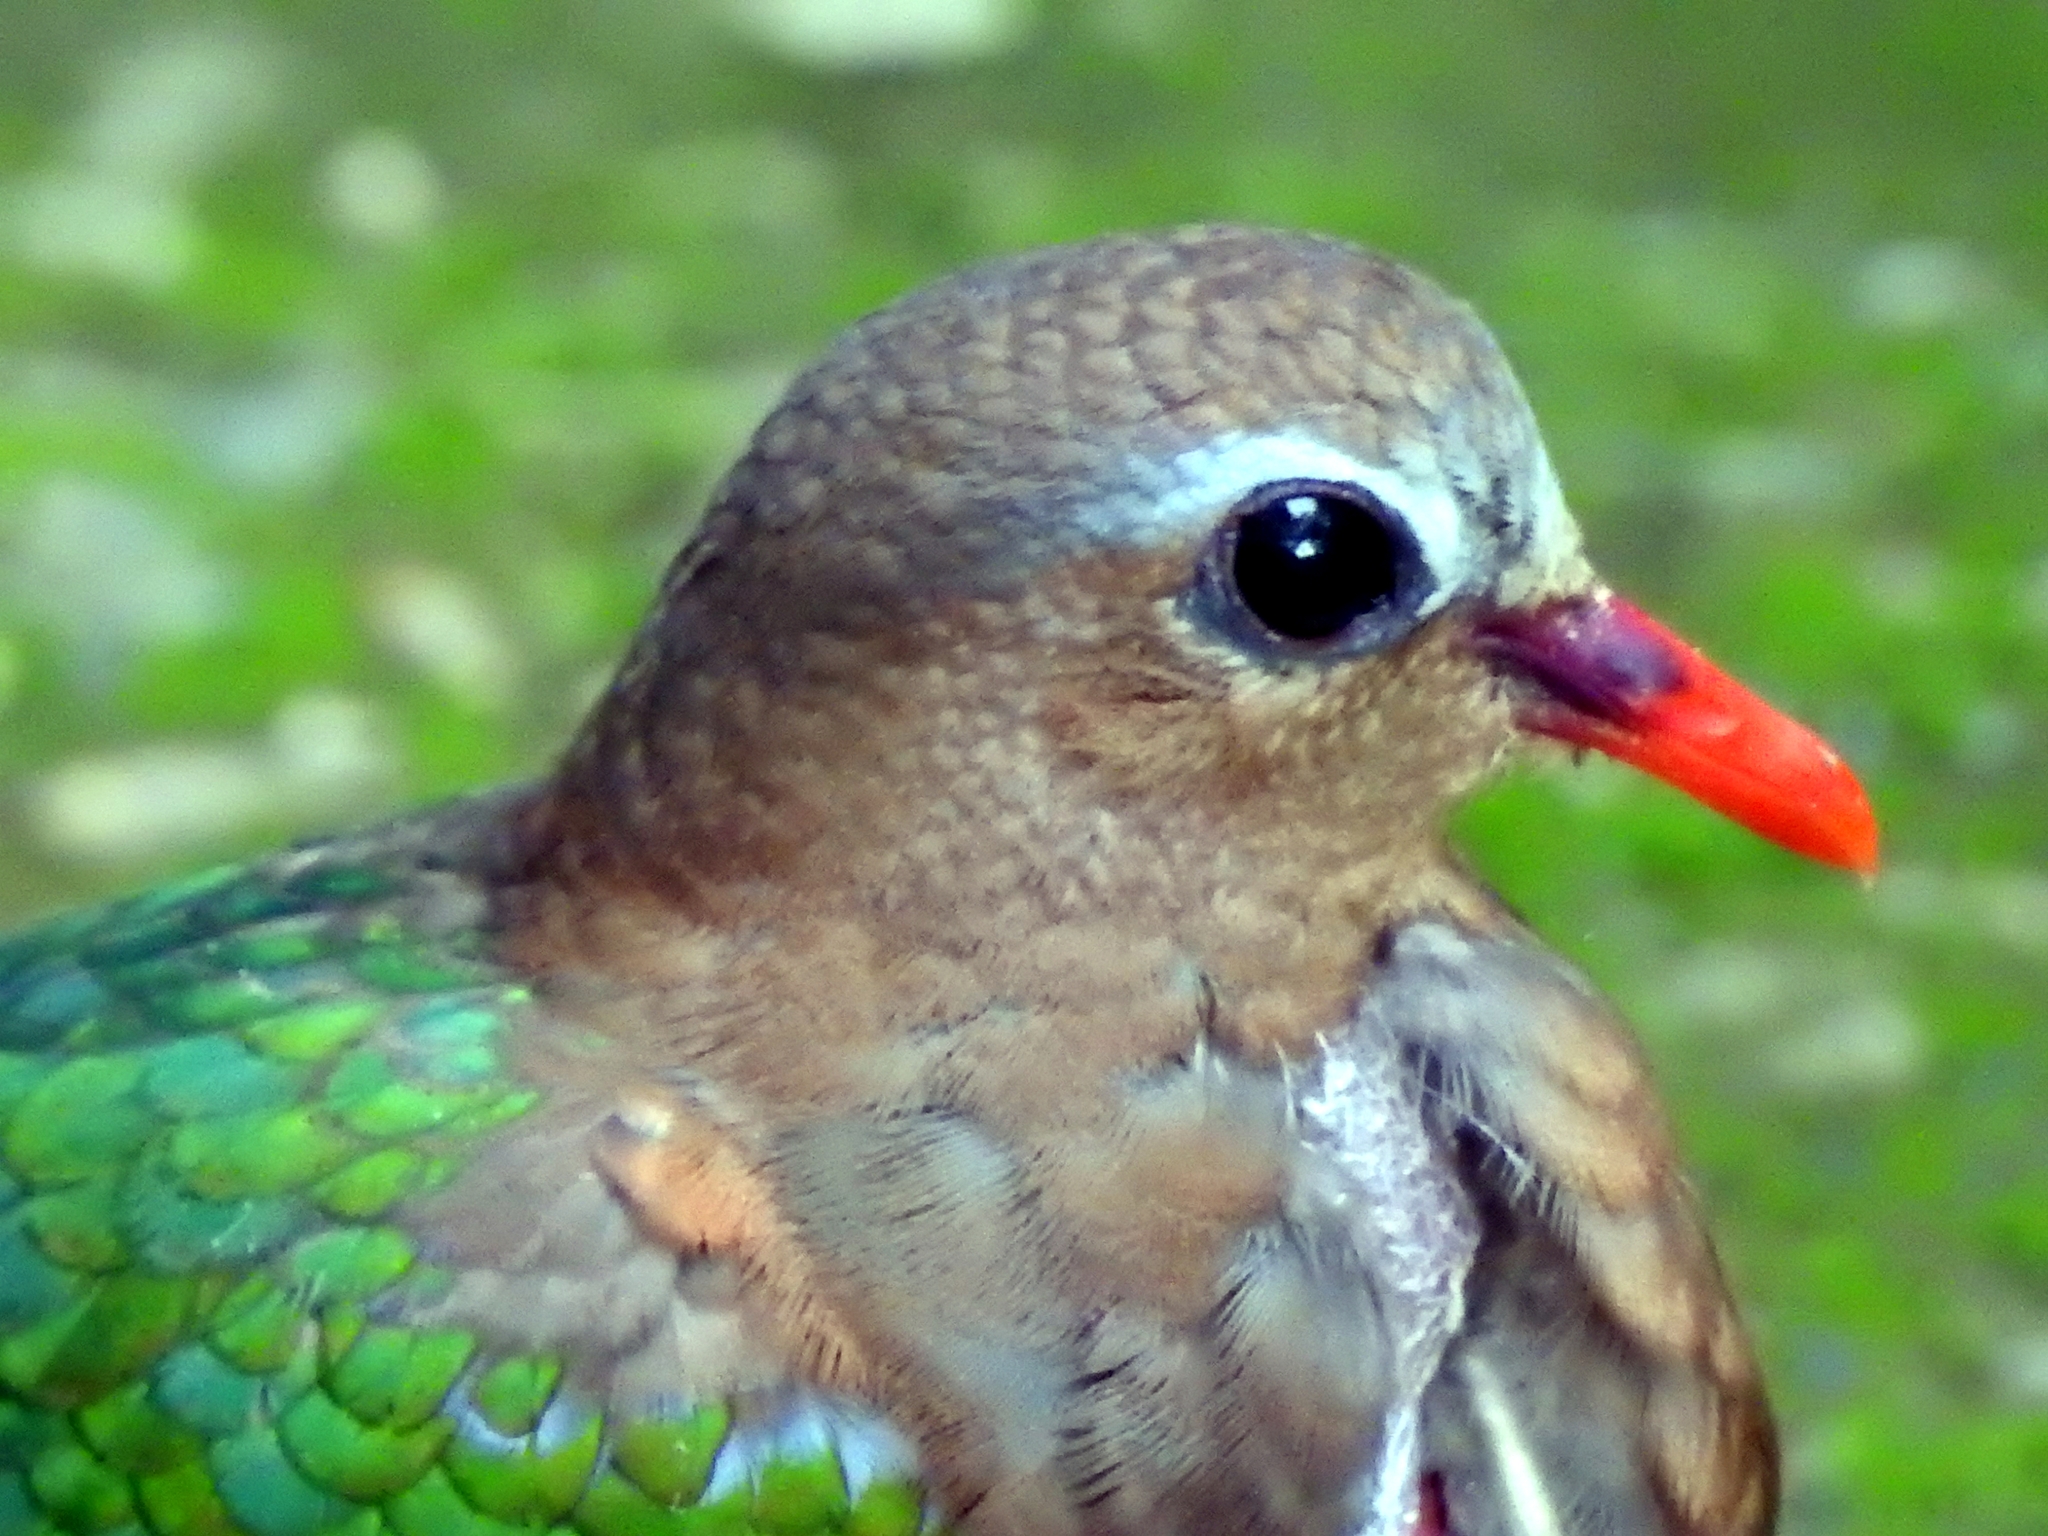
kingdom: Animalia
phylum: Chordata
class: Aves
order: Columbiformes
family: Columbidae
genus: Chalcophaps
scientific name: Chalcophaps indica
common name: Common emerald dove
